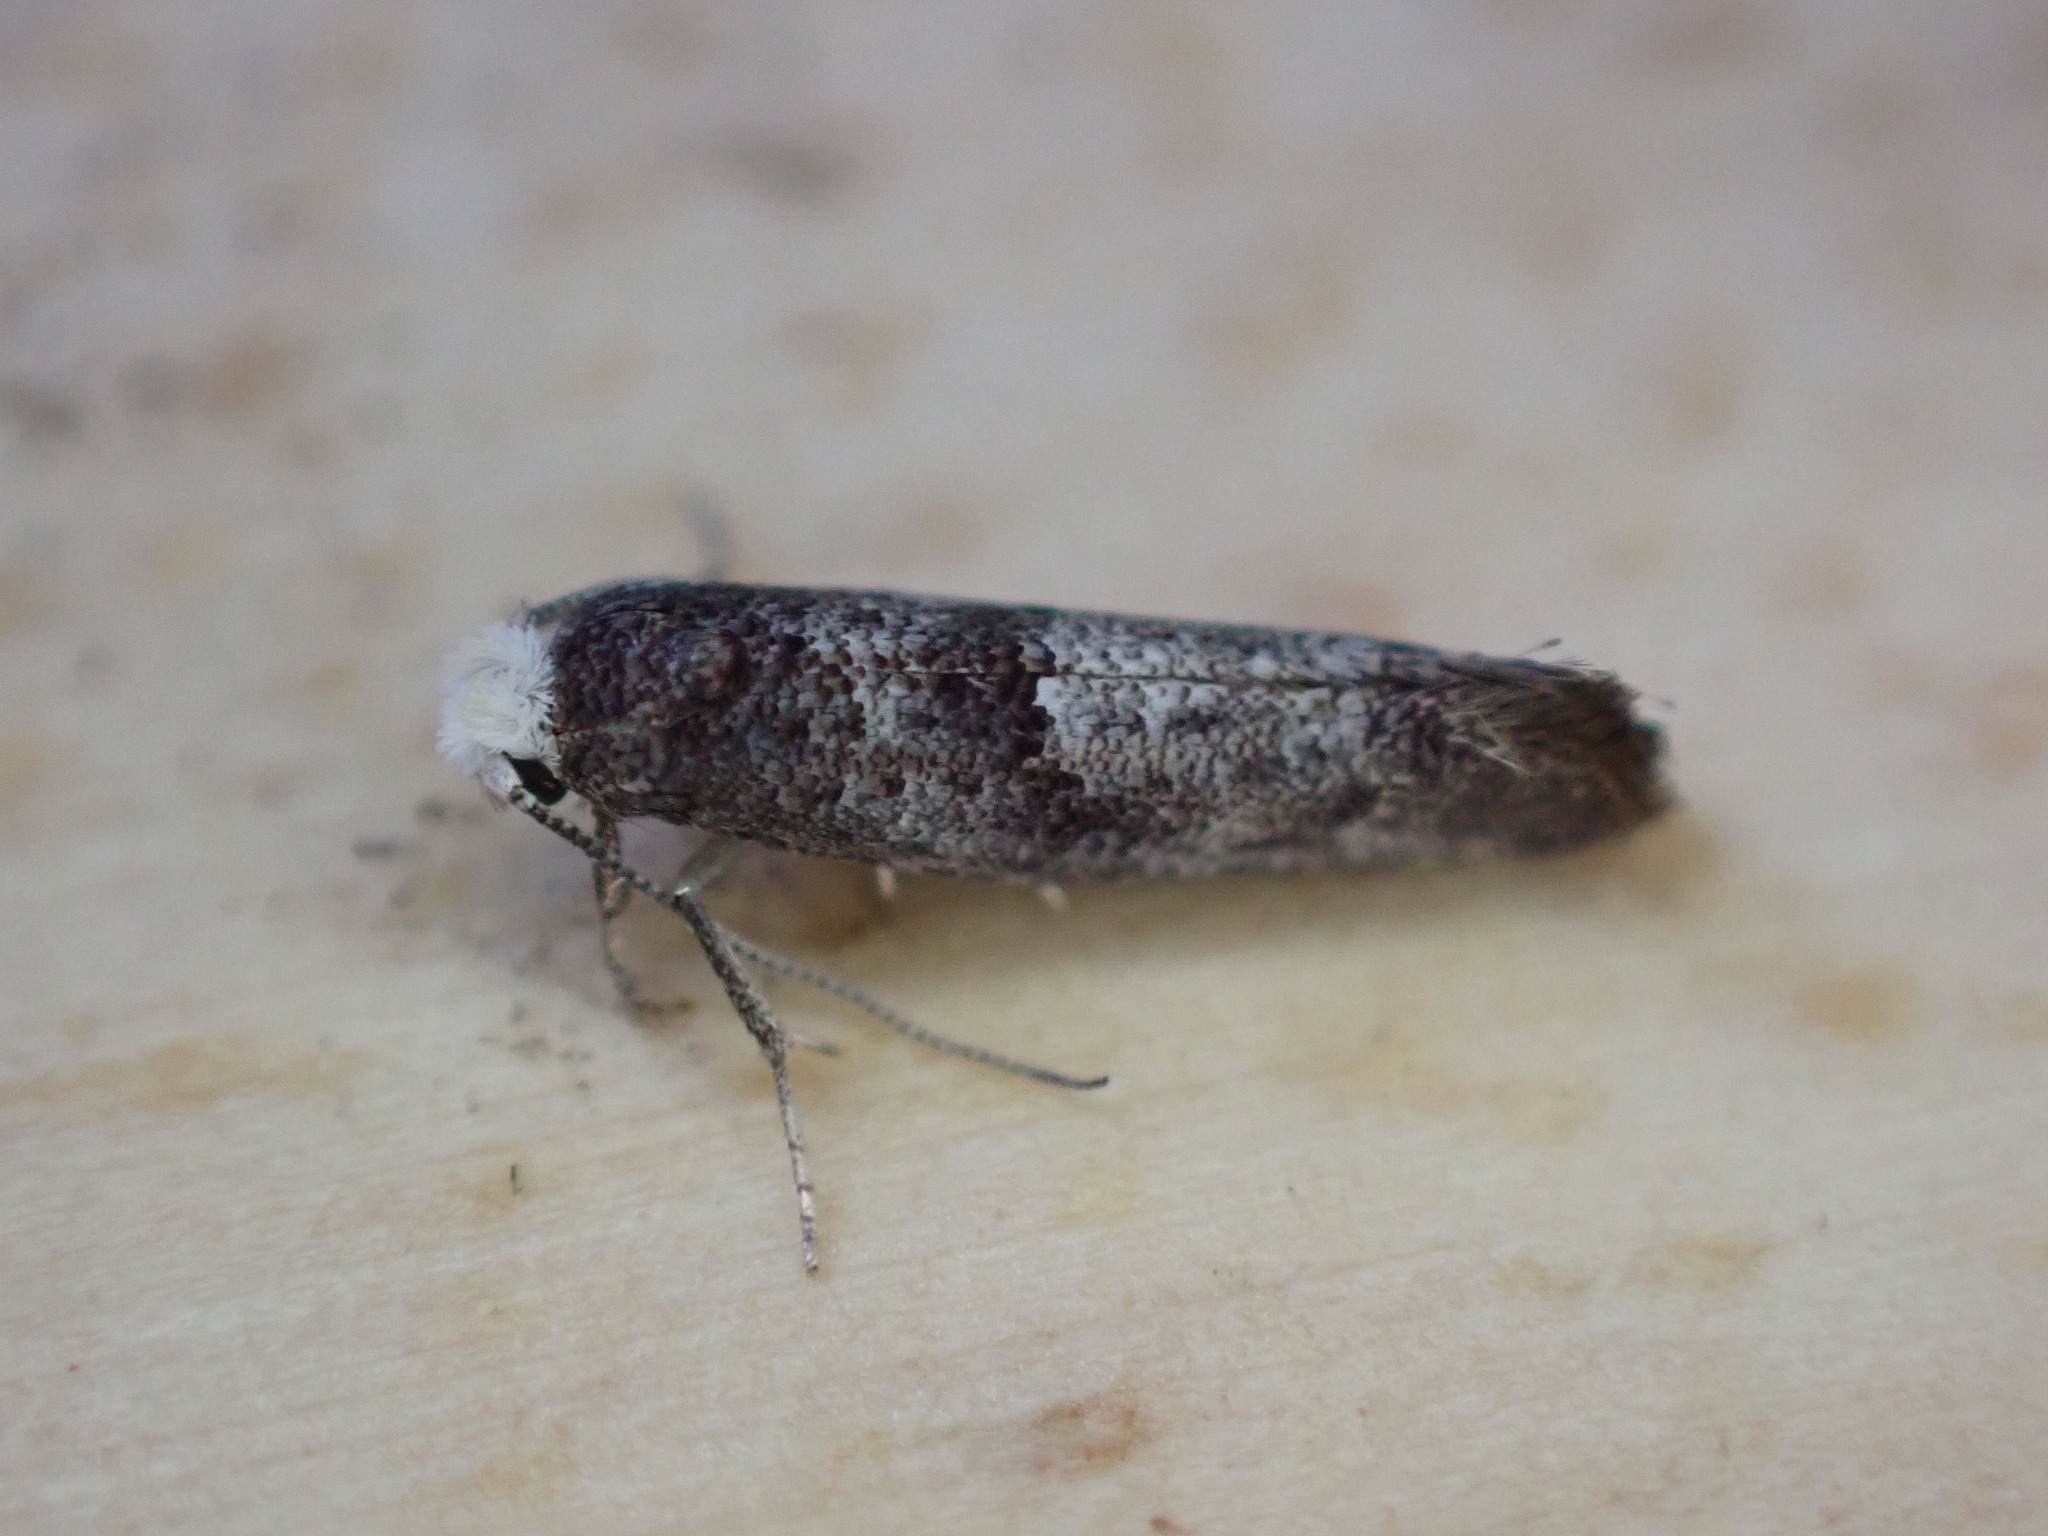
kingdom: Animalia
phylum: Arthropoda
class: Insecta
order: Lepidoptera
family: Yponomeutidae
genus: Swammerdamia
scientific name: Swammerdamia pyrella
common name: Little ermine moth
